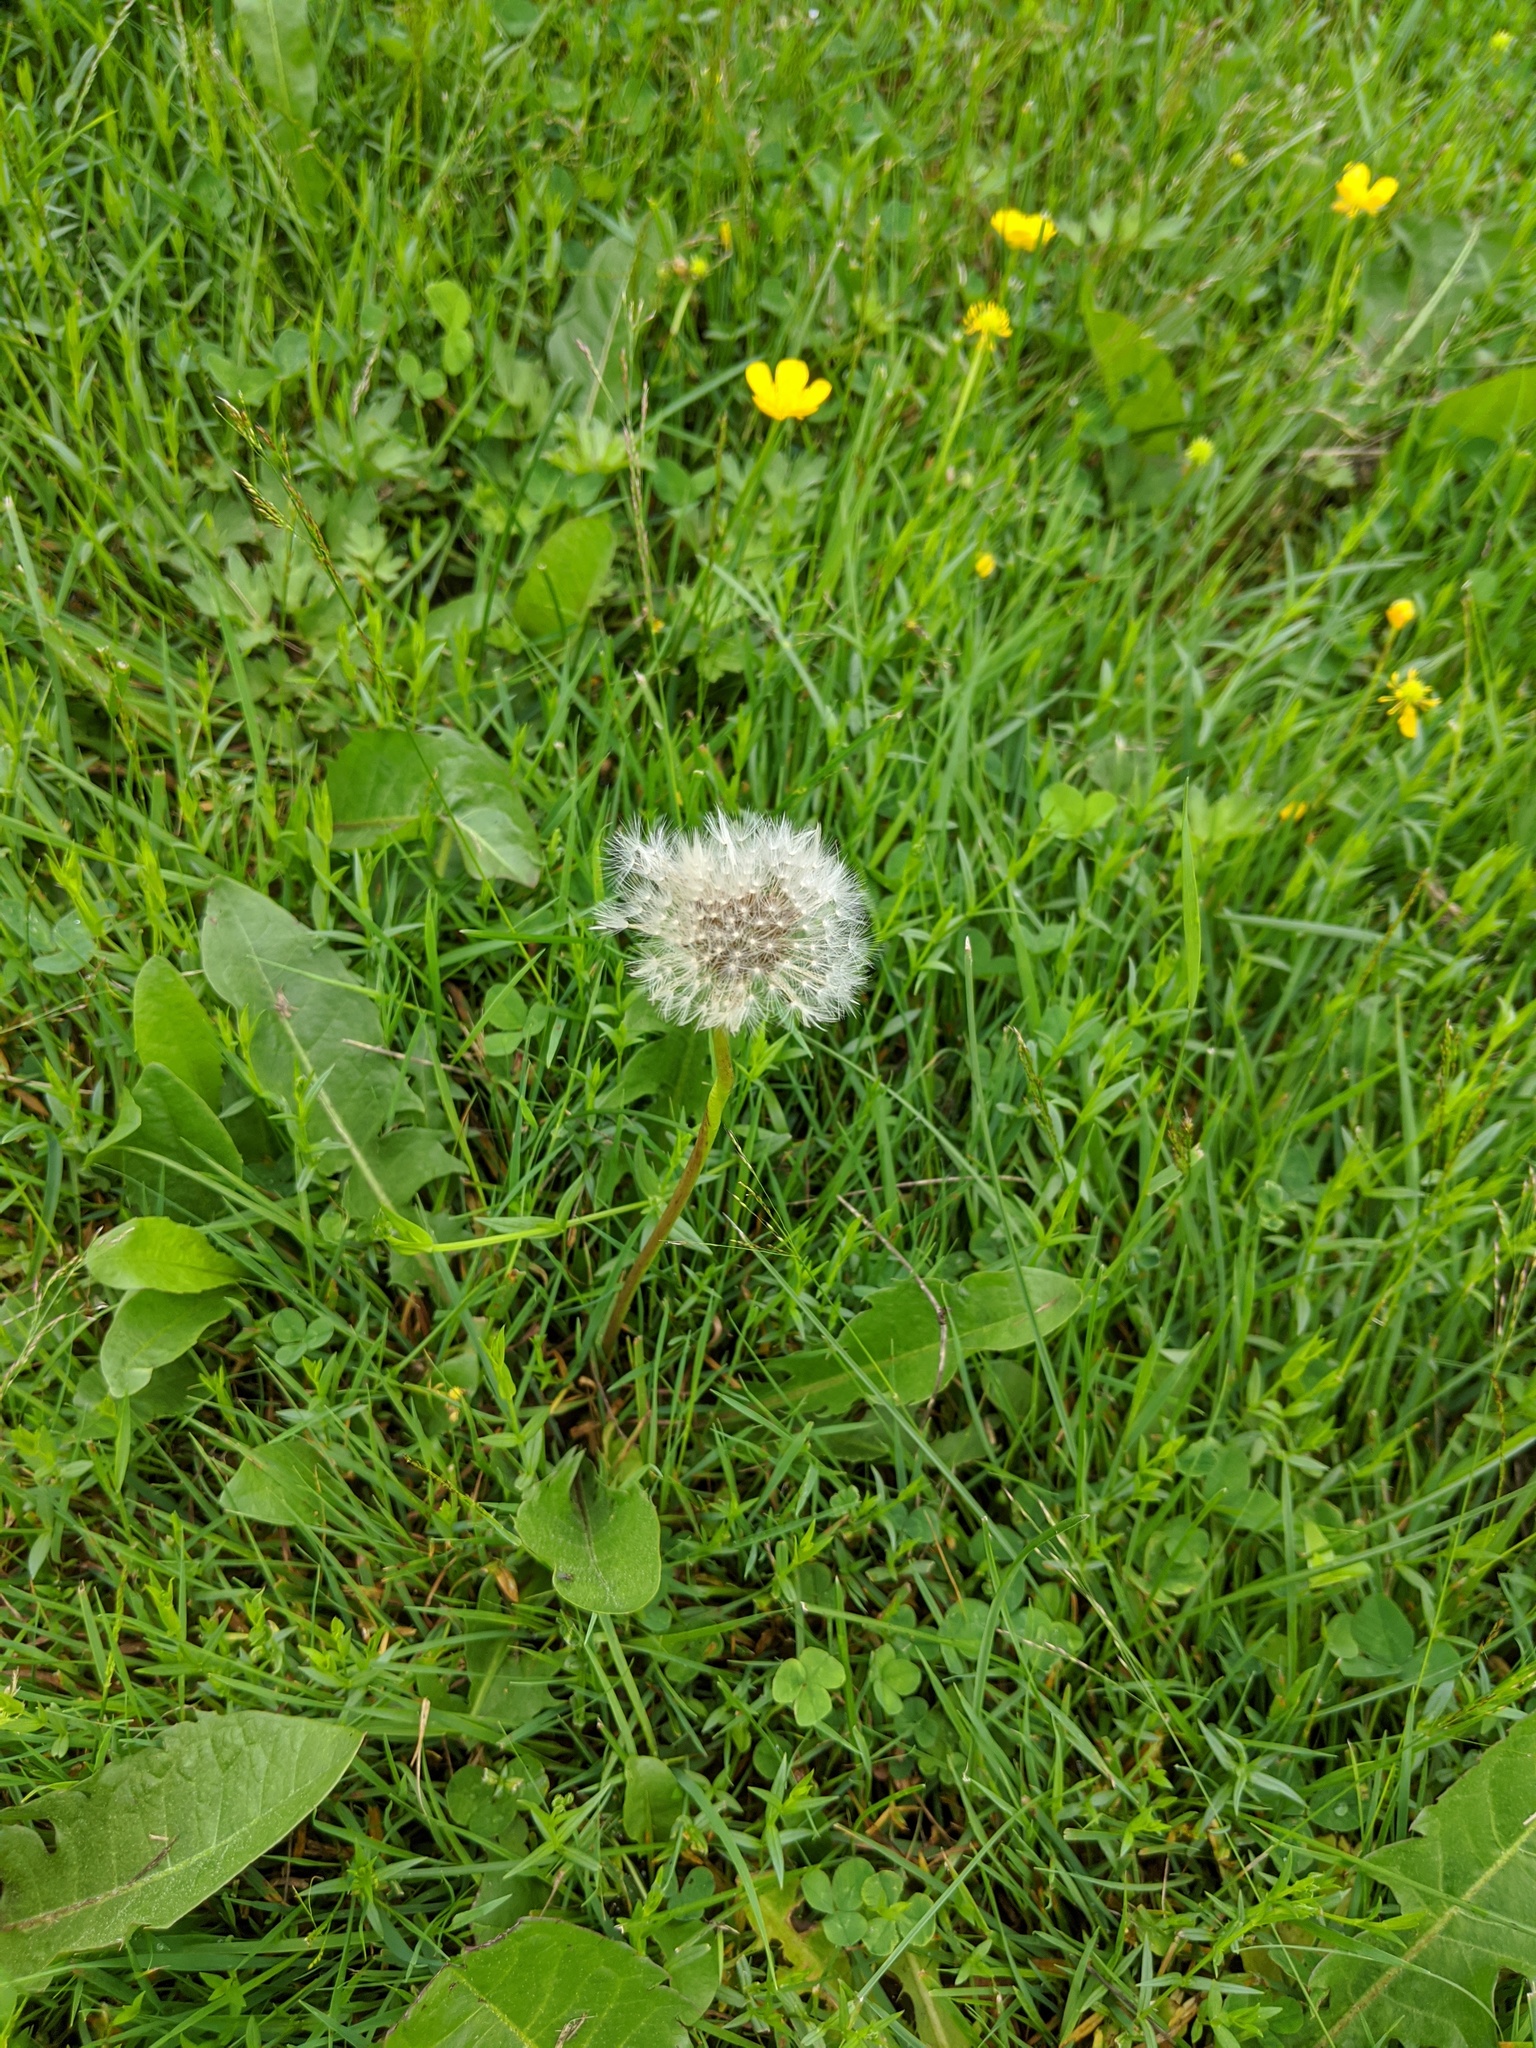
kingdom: Plantae
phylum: Tracheophyta
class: Magnoliopsida
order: Asterales
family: Asteraceae
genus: Taraxacum
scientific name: Taraxacum officinale
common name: Common dandelion
